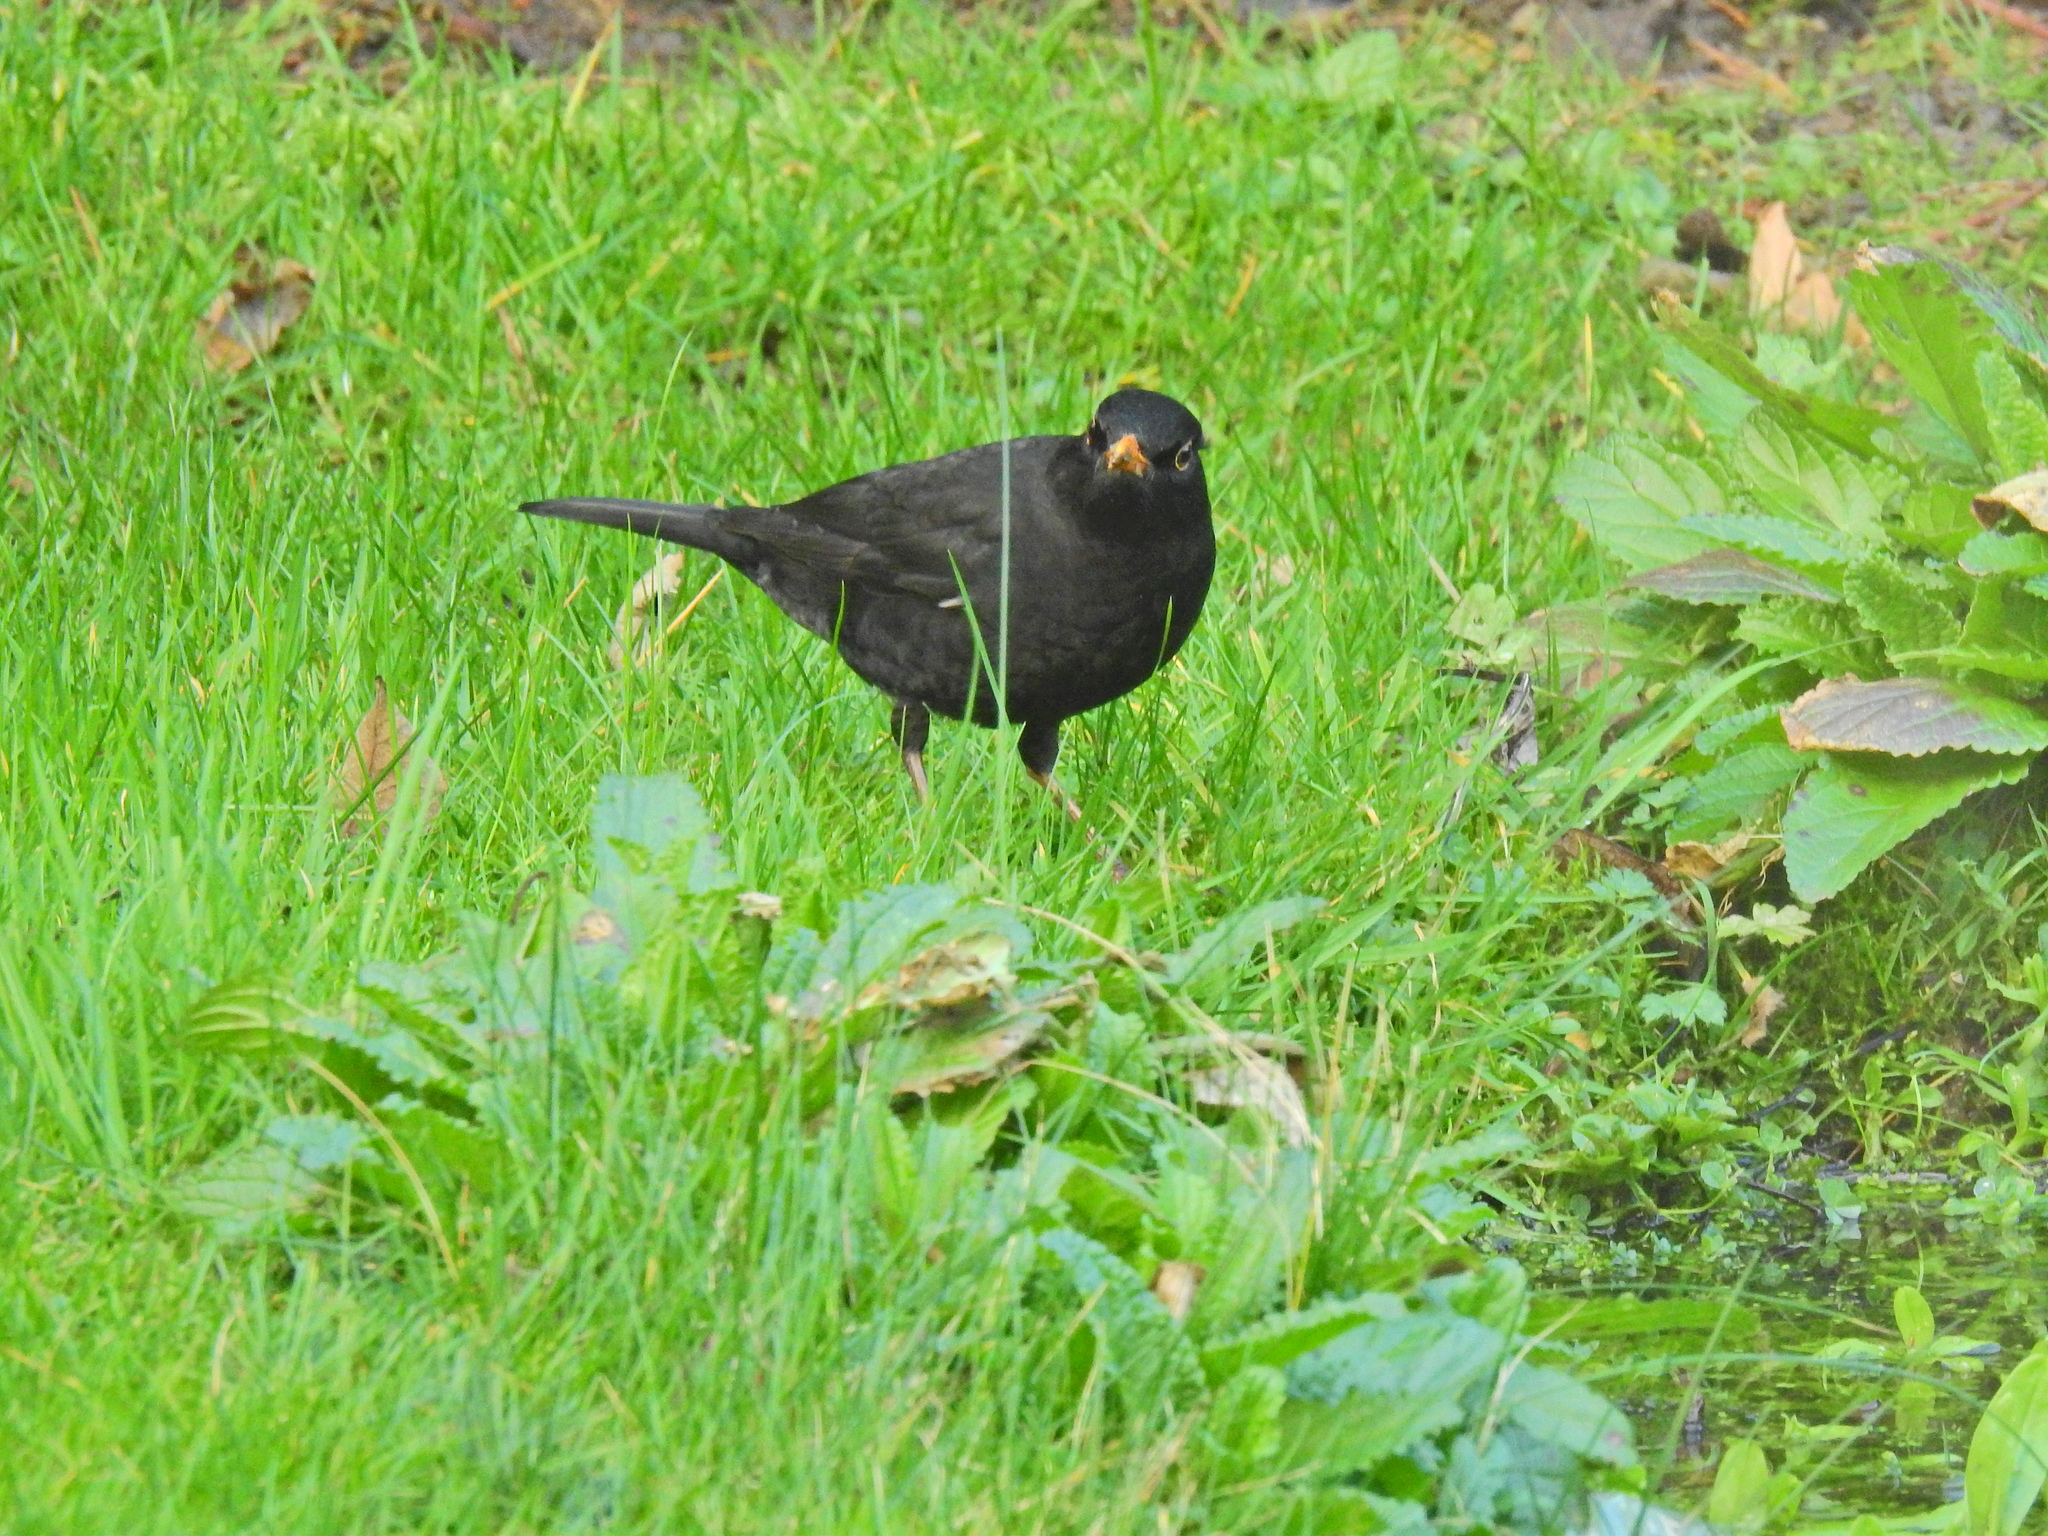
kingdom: Animalia
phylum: Chordata
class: Aves
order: Passeriformes
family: Turdidae
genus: Turdus
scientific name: Turdus merula
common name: Common blackbird
